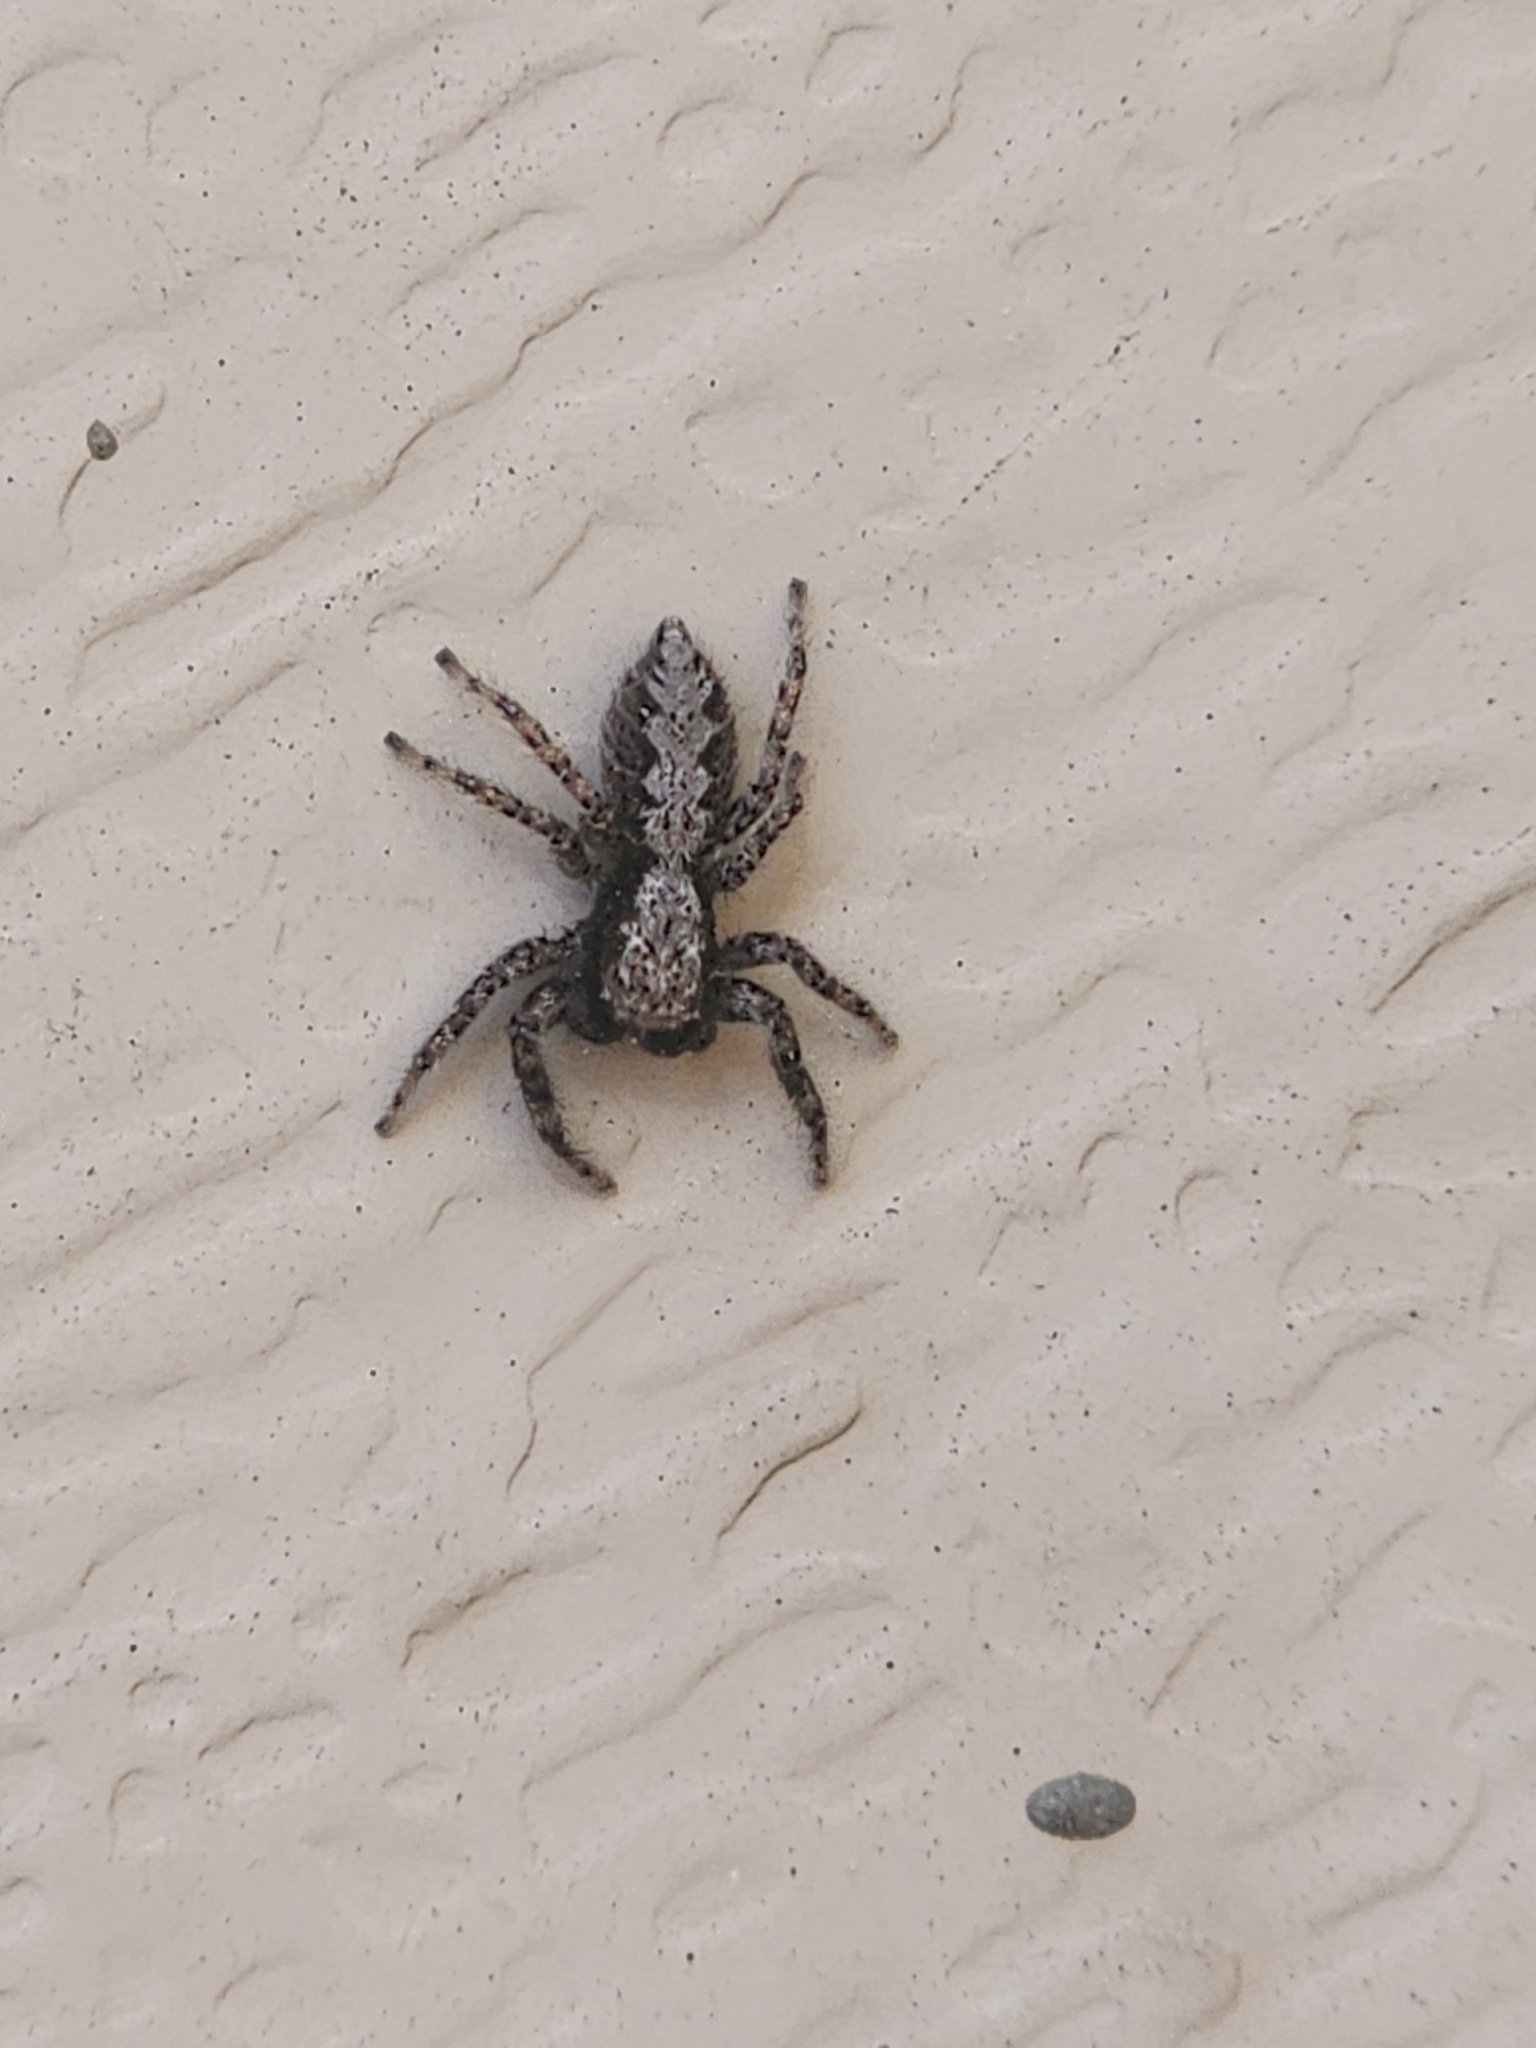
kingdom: Animalia
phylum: Arthropoda
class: Arachnida
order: Araneae
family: Salticidae
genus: Platycryptus
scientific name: Platycryptus californicus
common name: Jumping spiders
